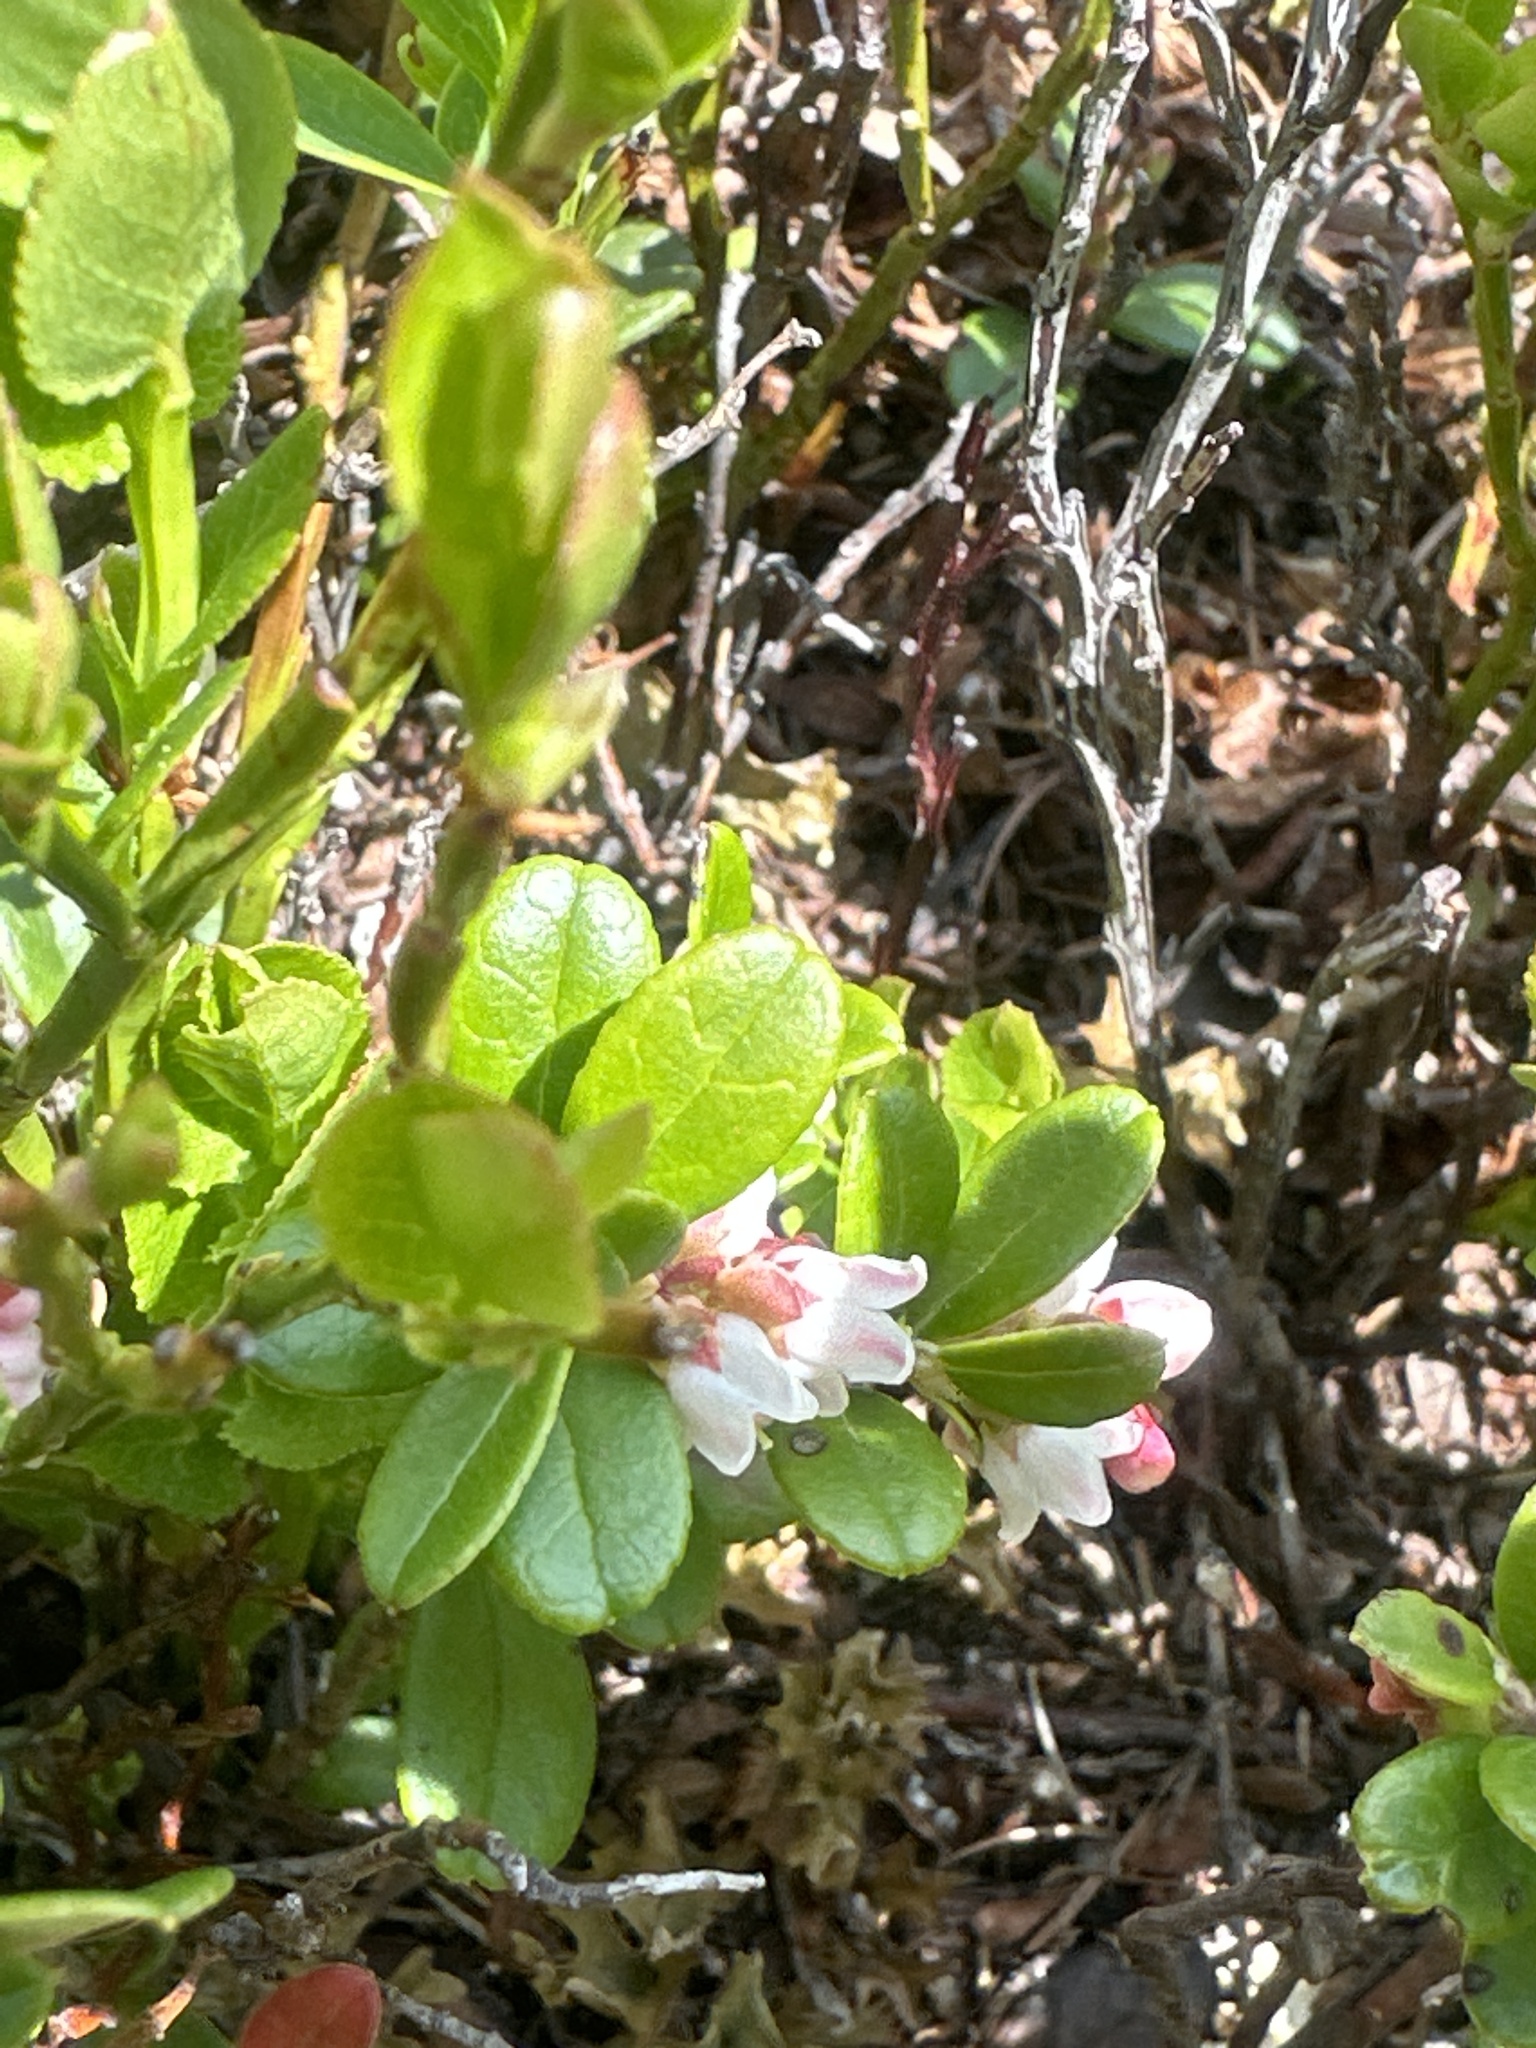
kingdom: Plantae
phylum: Tracheophyta
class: Magnoliopsida
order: Ericales
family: Ericaceae
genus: Vaccinium
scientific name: Vaccinium vitis-idaea
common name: Cowberry
